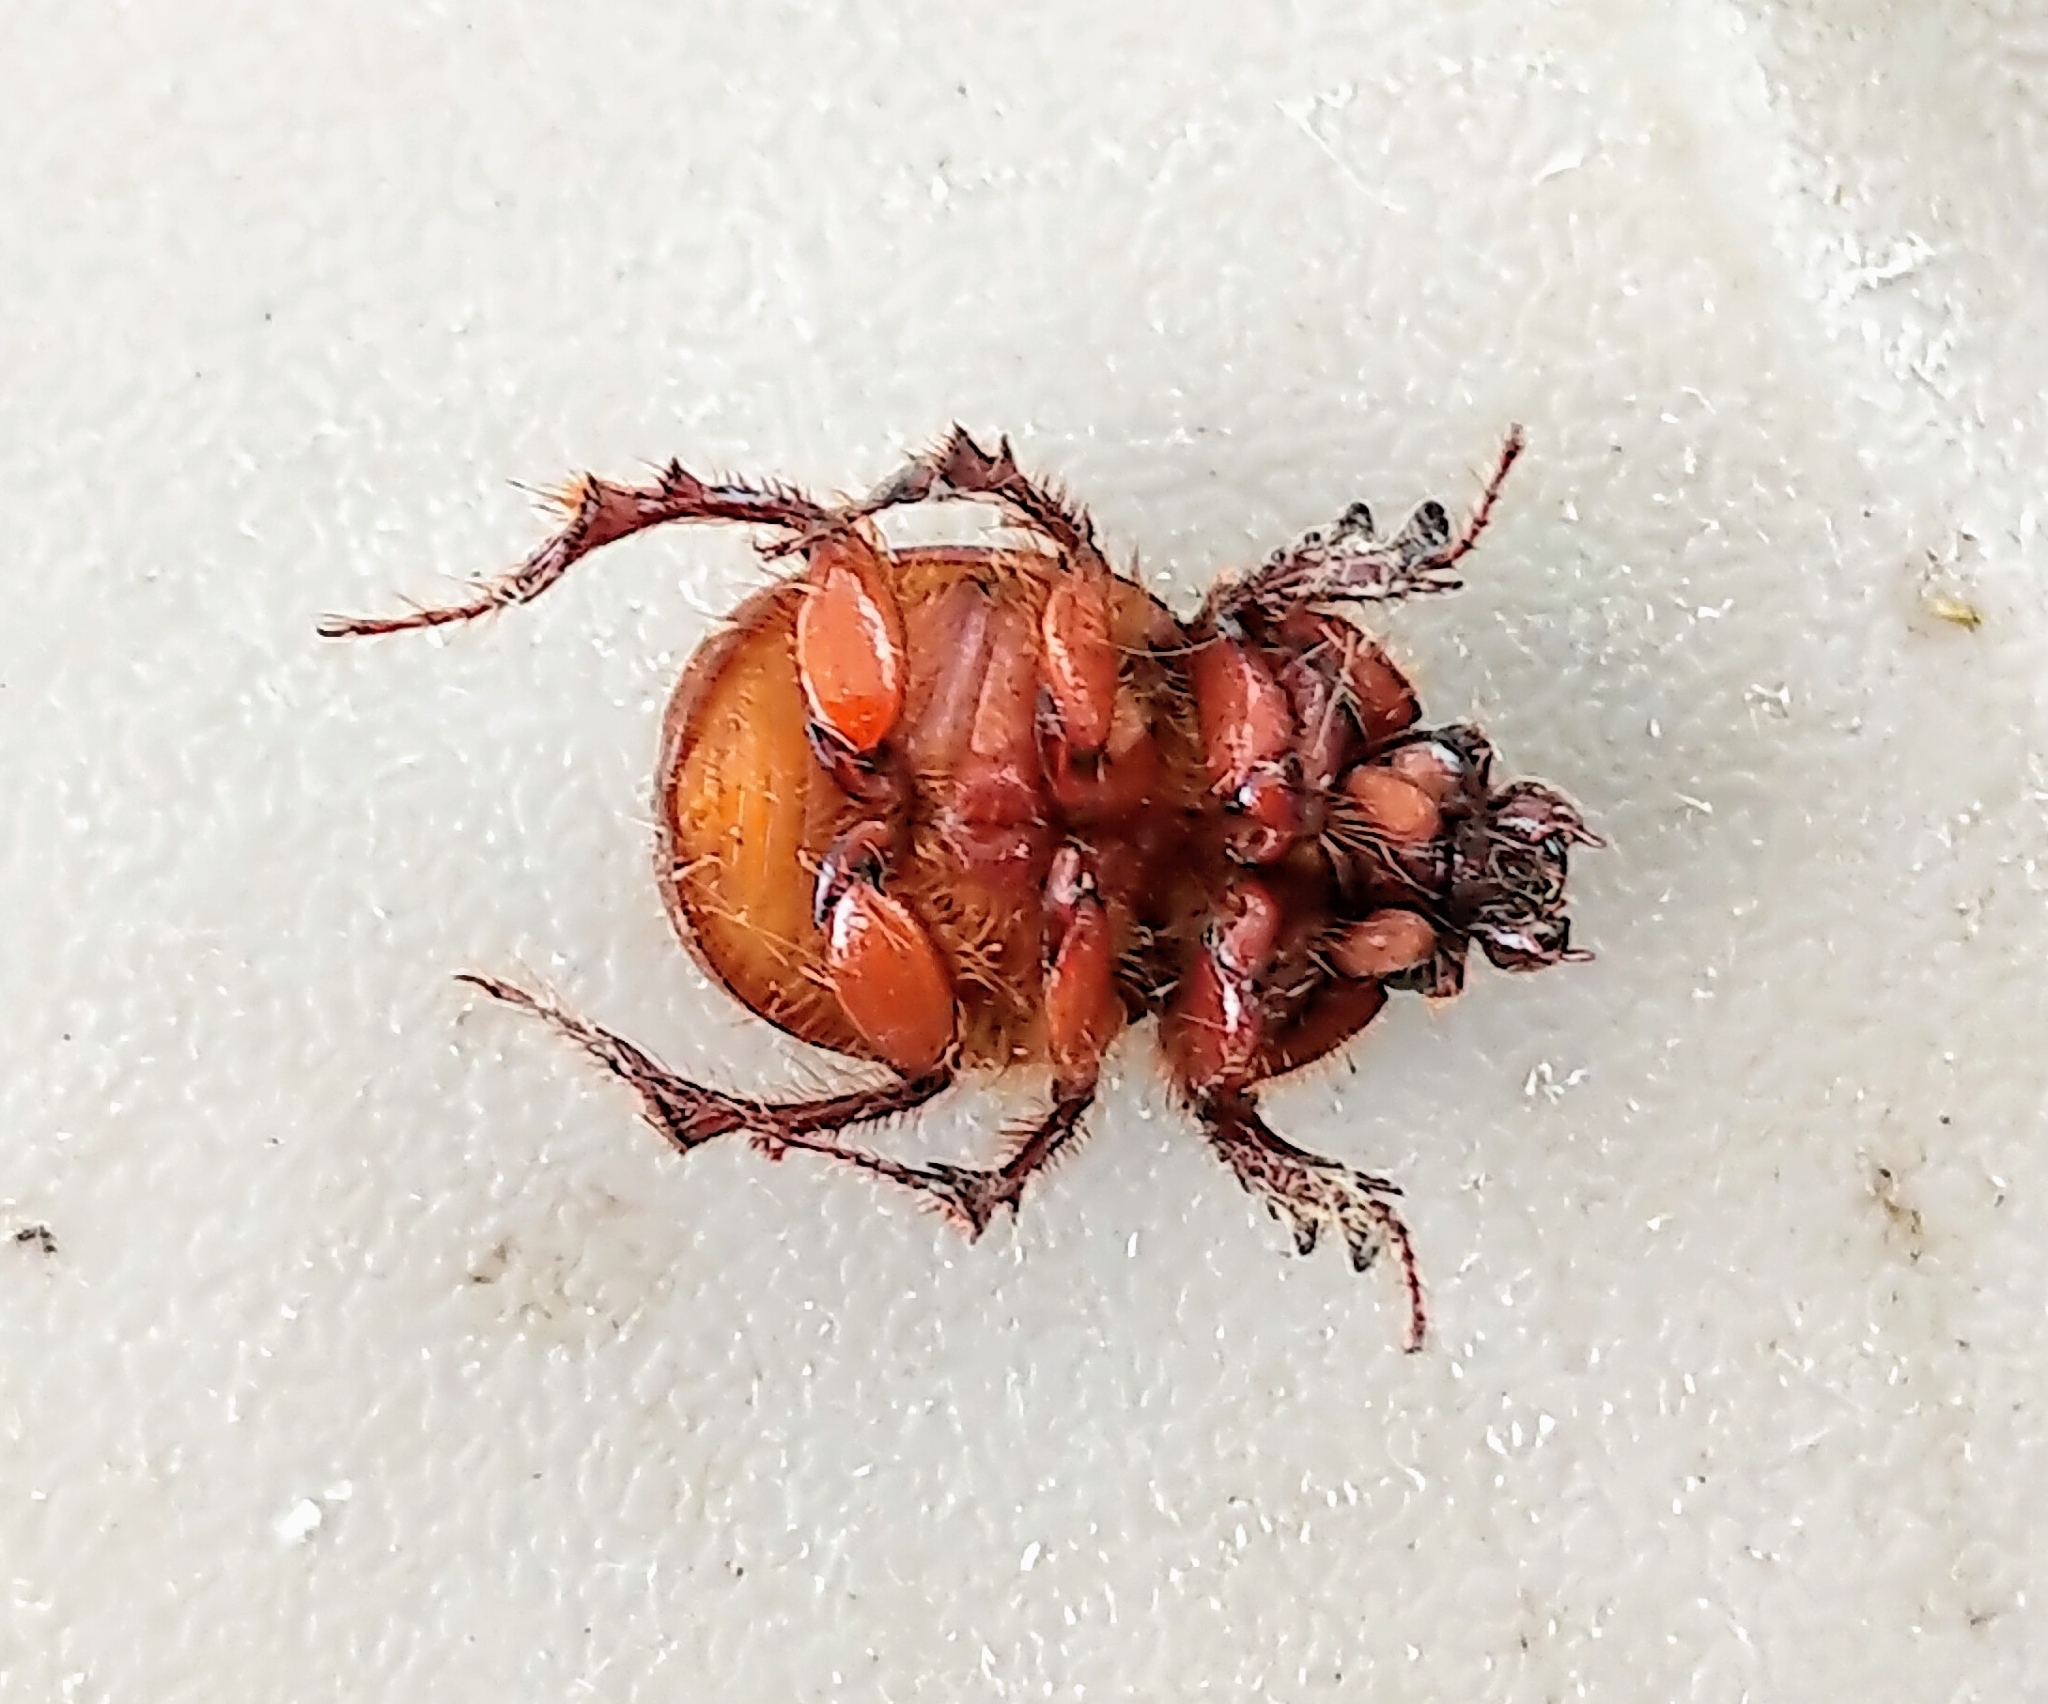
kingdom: Animalia
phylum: Arthropoda
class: Insecta
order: Coleoptera
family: Geotrupidae
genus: Eucanthus
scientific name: Eucanthus greeni
